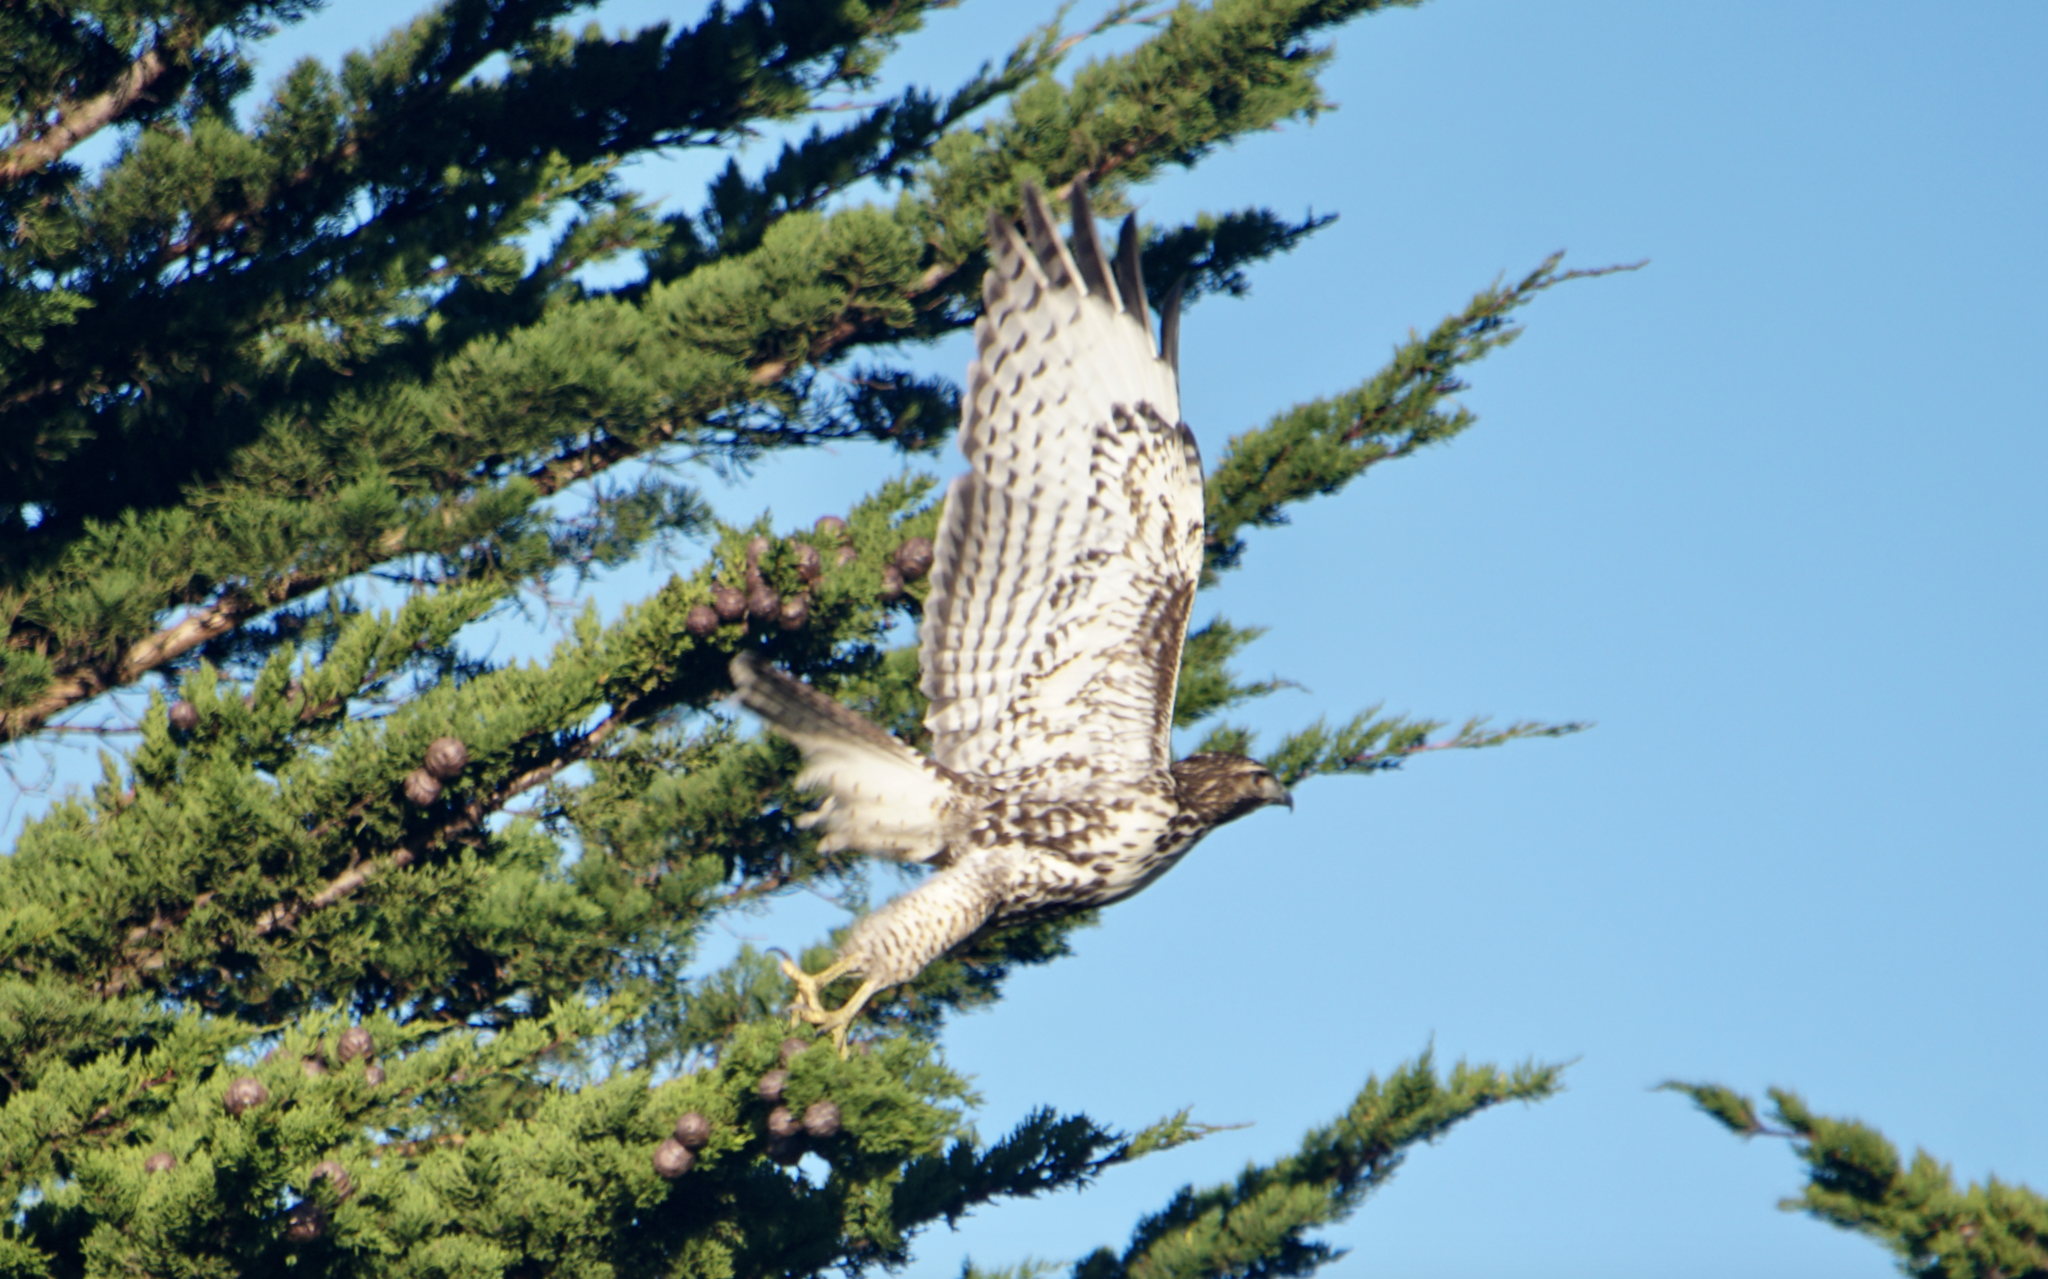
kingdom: Animalia
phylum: Chordata
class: Aves
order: Accipitriformes
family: Accipitridae
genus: Buteo
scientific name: Buteo jamaicensis
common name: Red-tailed hawk
